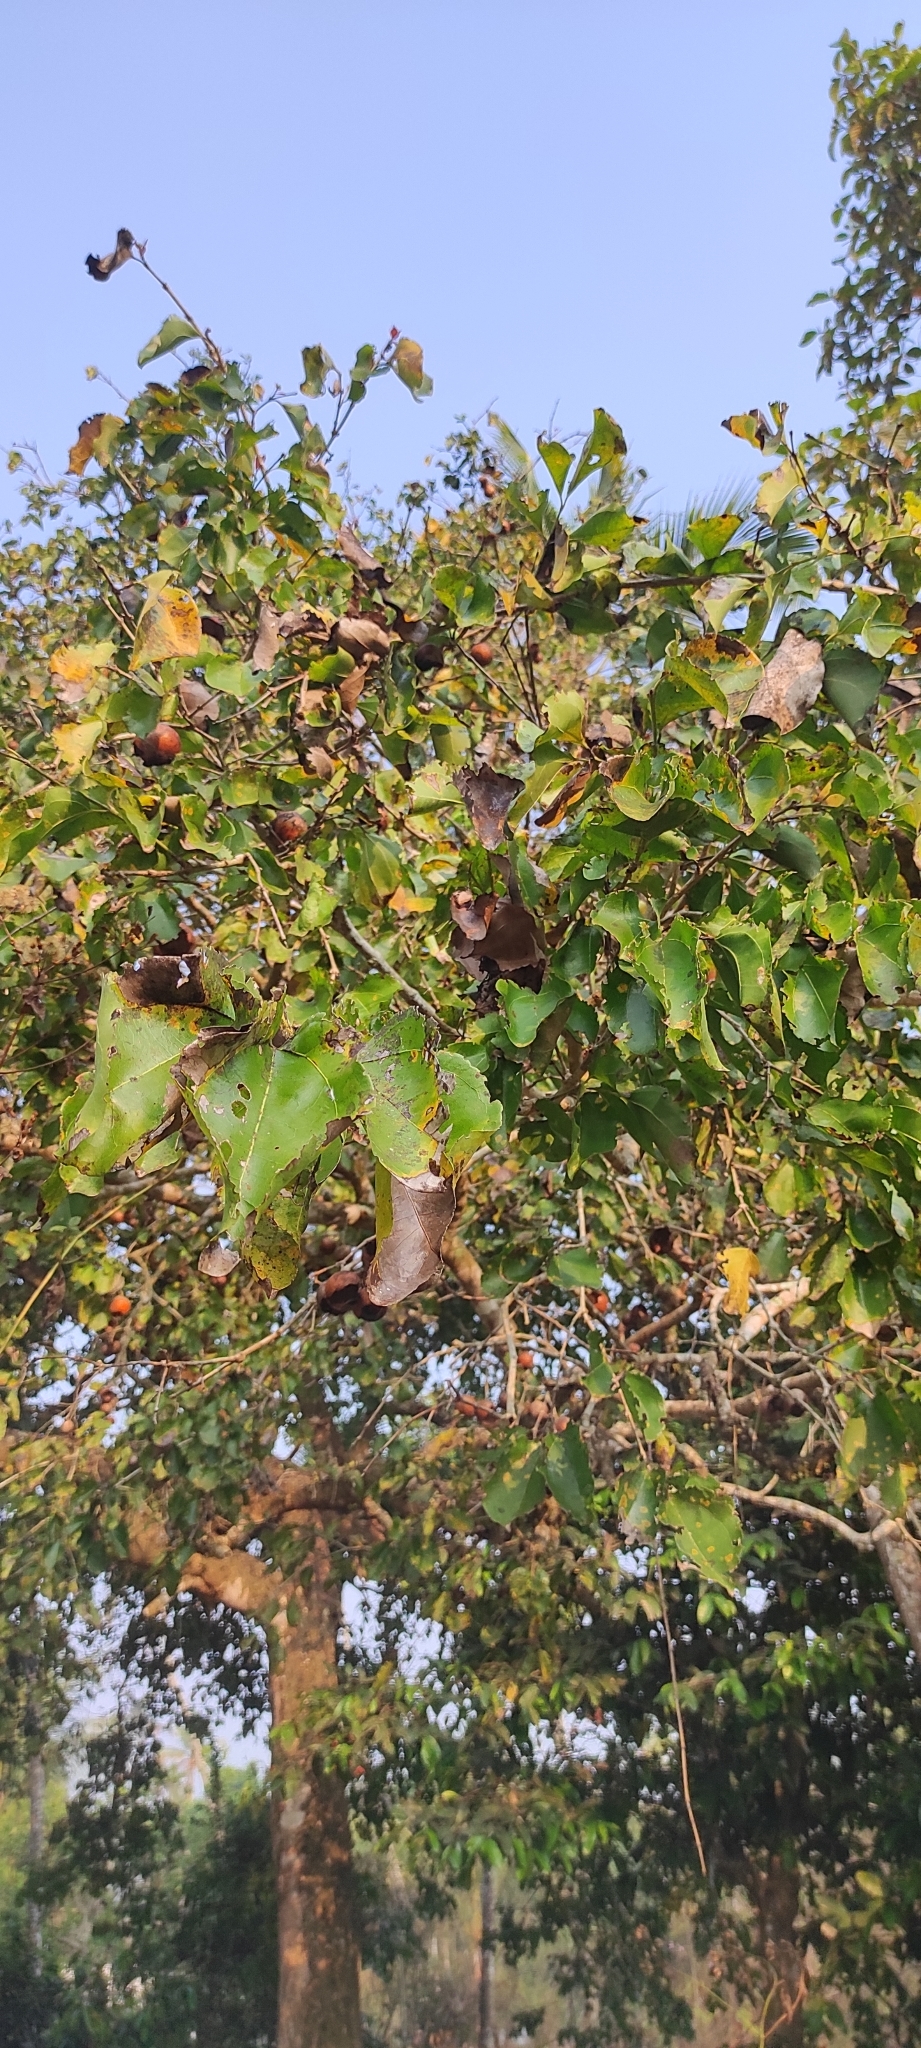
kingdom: Plantae
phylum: Tracheophyta
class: Magnoliopsida
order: Gentianales
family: Loganiaceae
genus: Strychnos
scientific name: Strychnos nux-vomica
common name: Strychninetree
